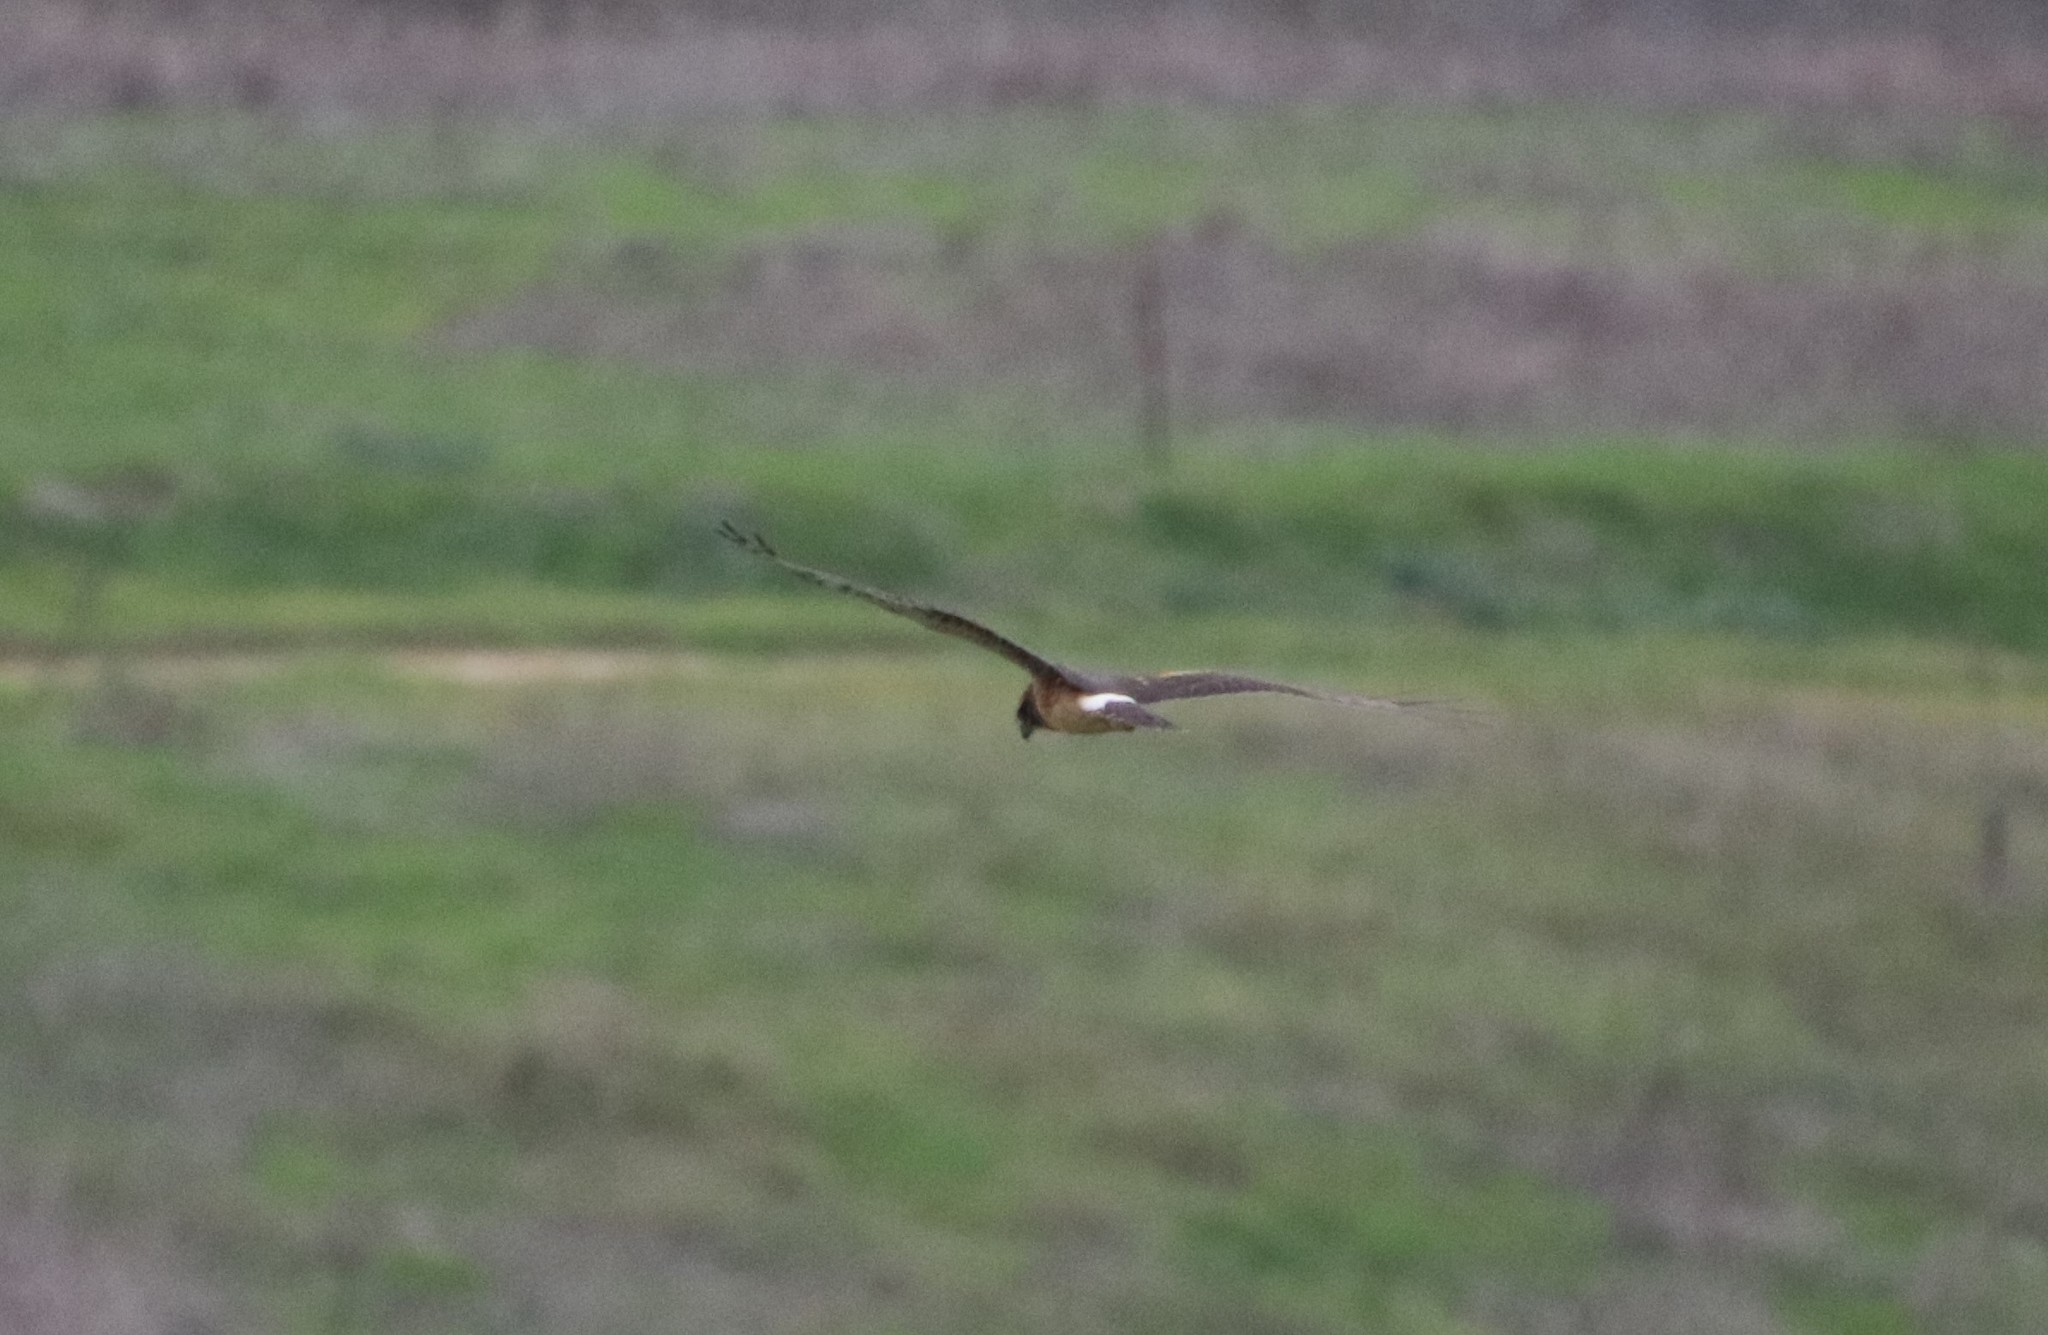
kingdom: Animalia
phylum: Chordata
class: Aves
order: Accipitriformes
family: Accipitridae
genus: Circus
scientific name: Circus cyaneus
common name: Hen harrier
